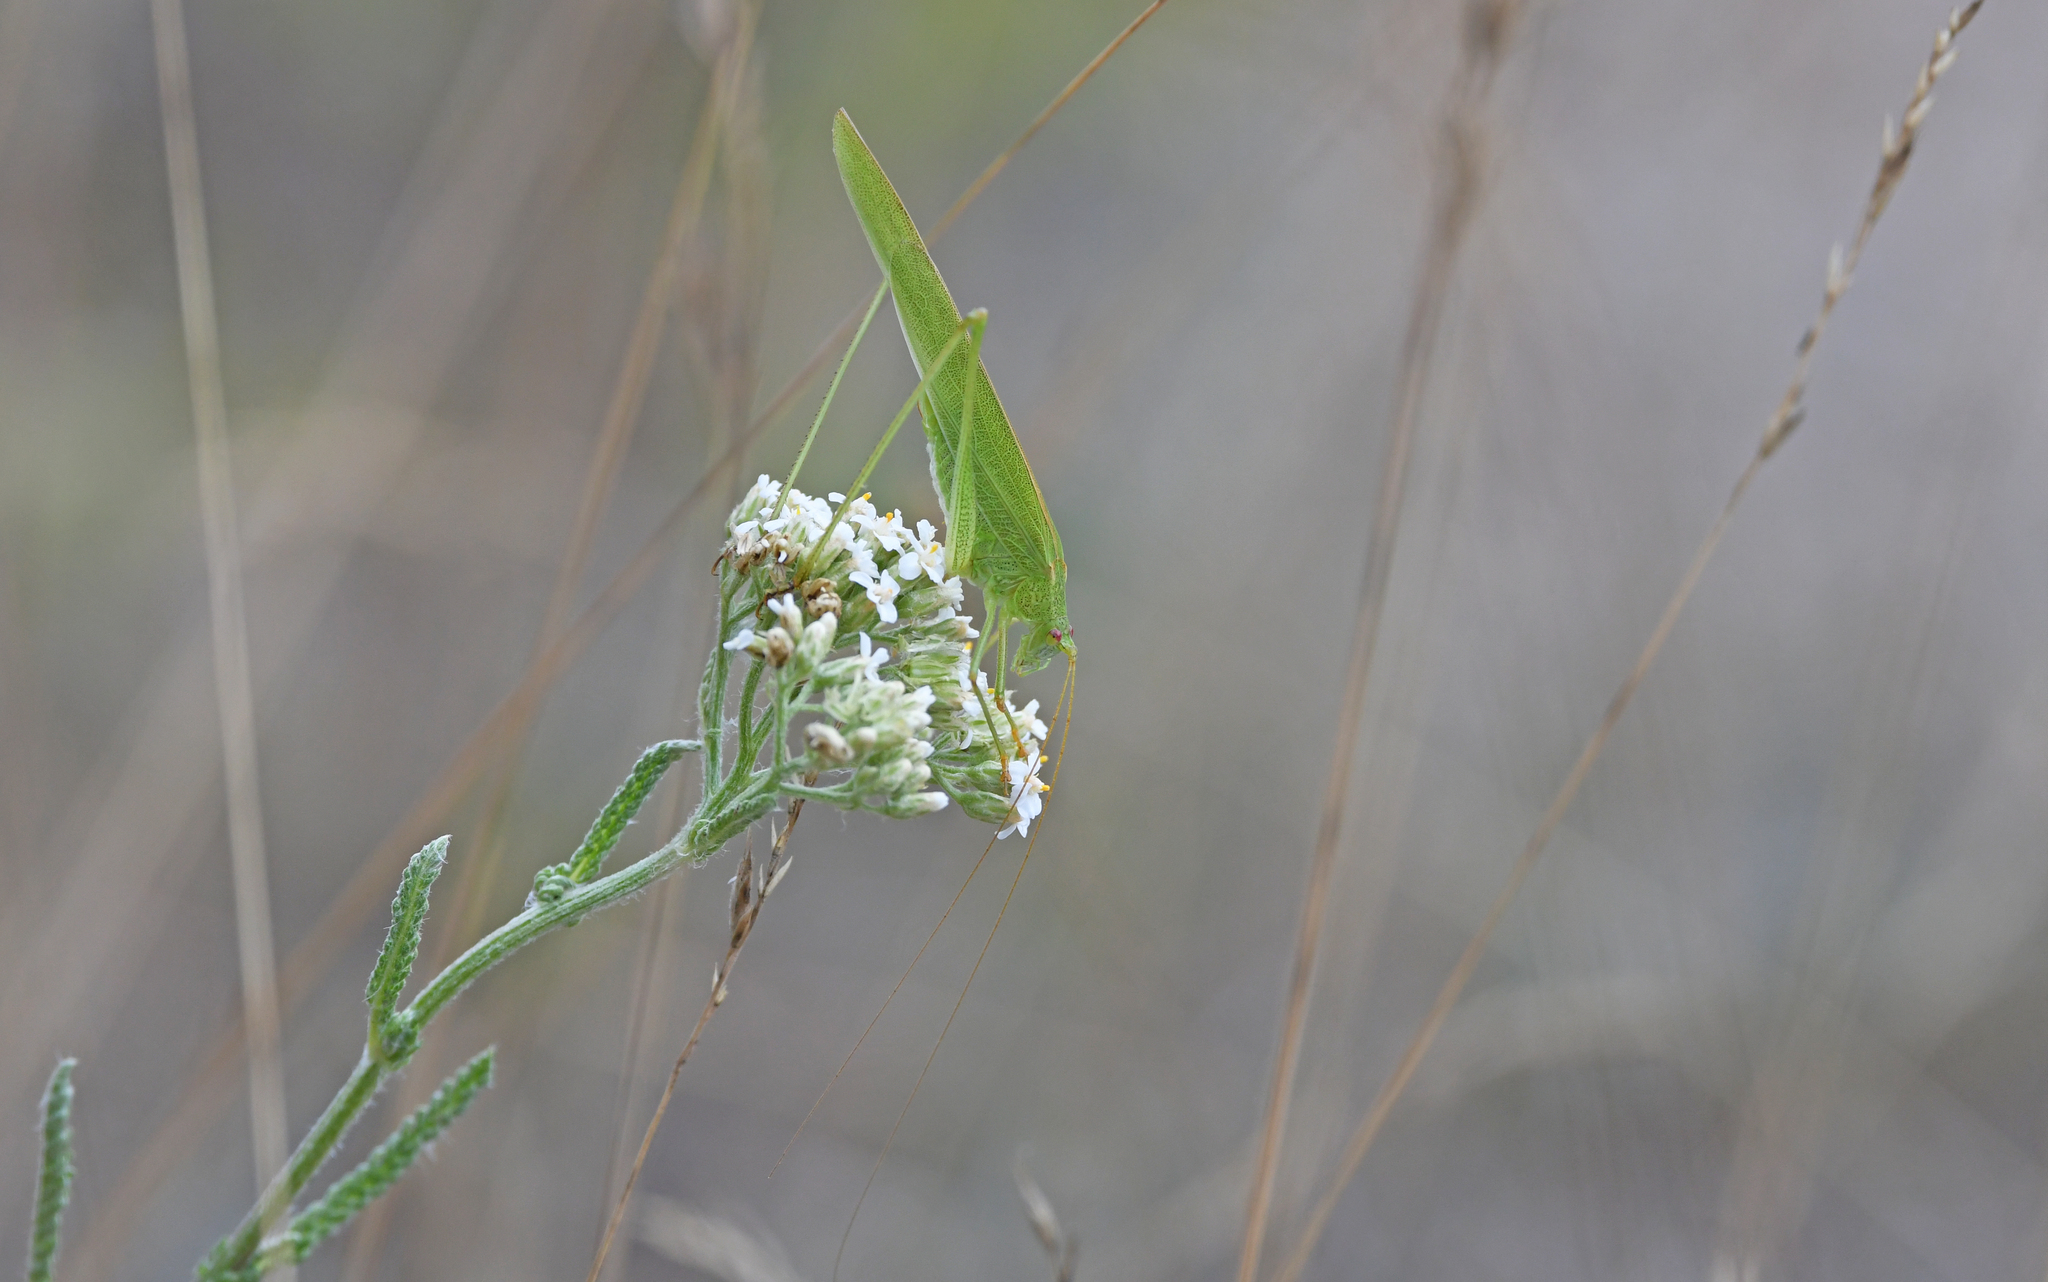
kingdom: Animalia
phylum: Arthropoda
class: Insecta
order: Orthoptera
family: Tettigoniidae
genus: Phaneroptera
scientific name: Phaneroptera falcata
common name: Sickle-bearing bush-cricket
